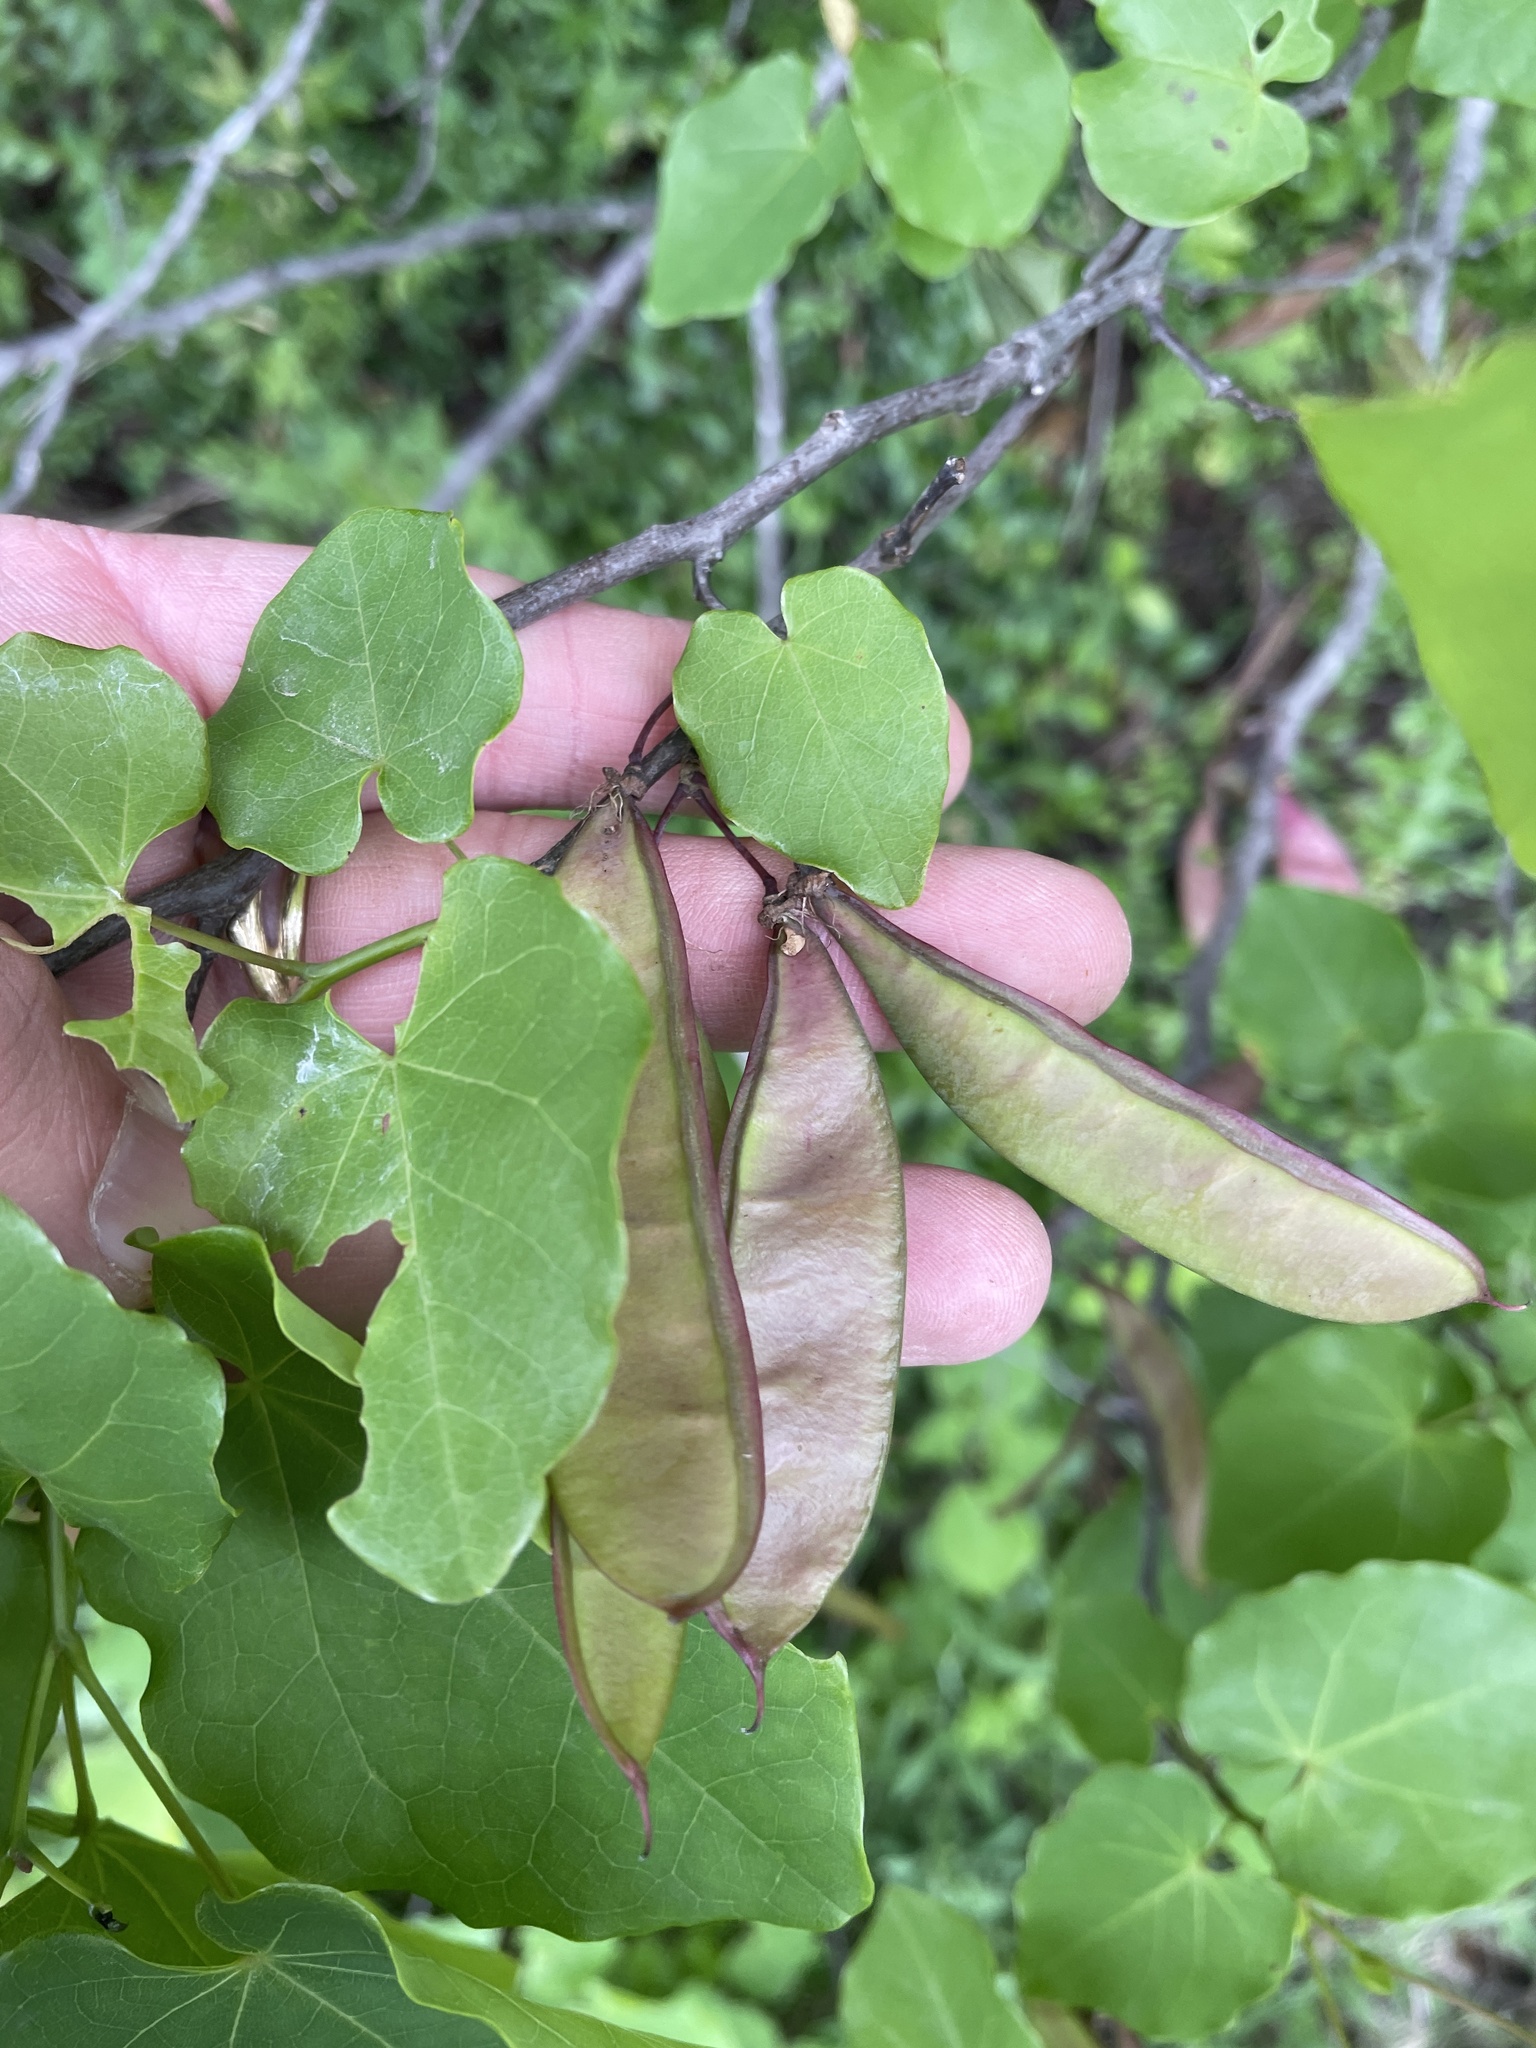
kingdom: Plantae
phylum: Tracheophyta
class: Magnoliopsida
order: Fabales
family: Fabaceae
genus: Cercis
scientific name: Cercis canadensis
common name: Eastern redbud
